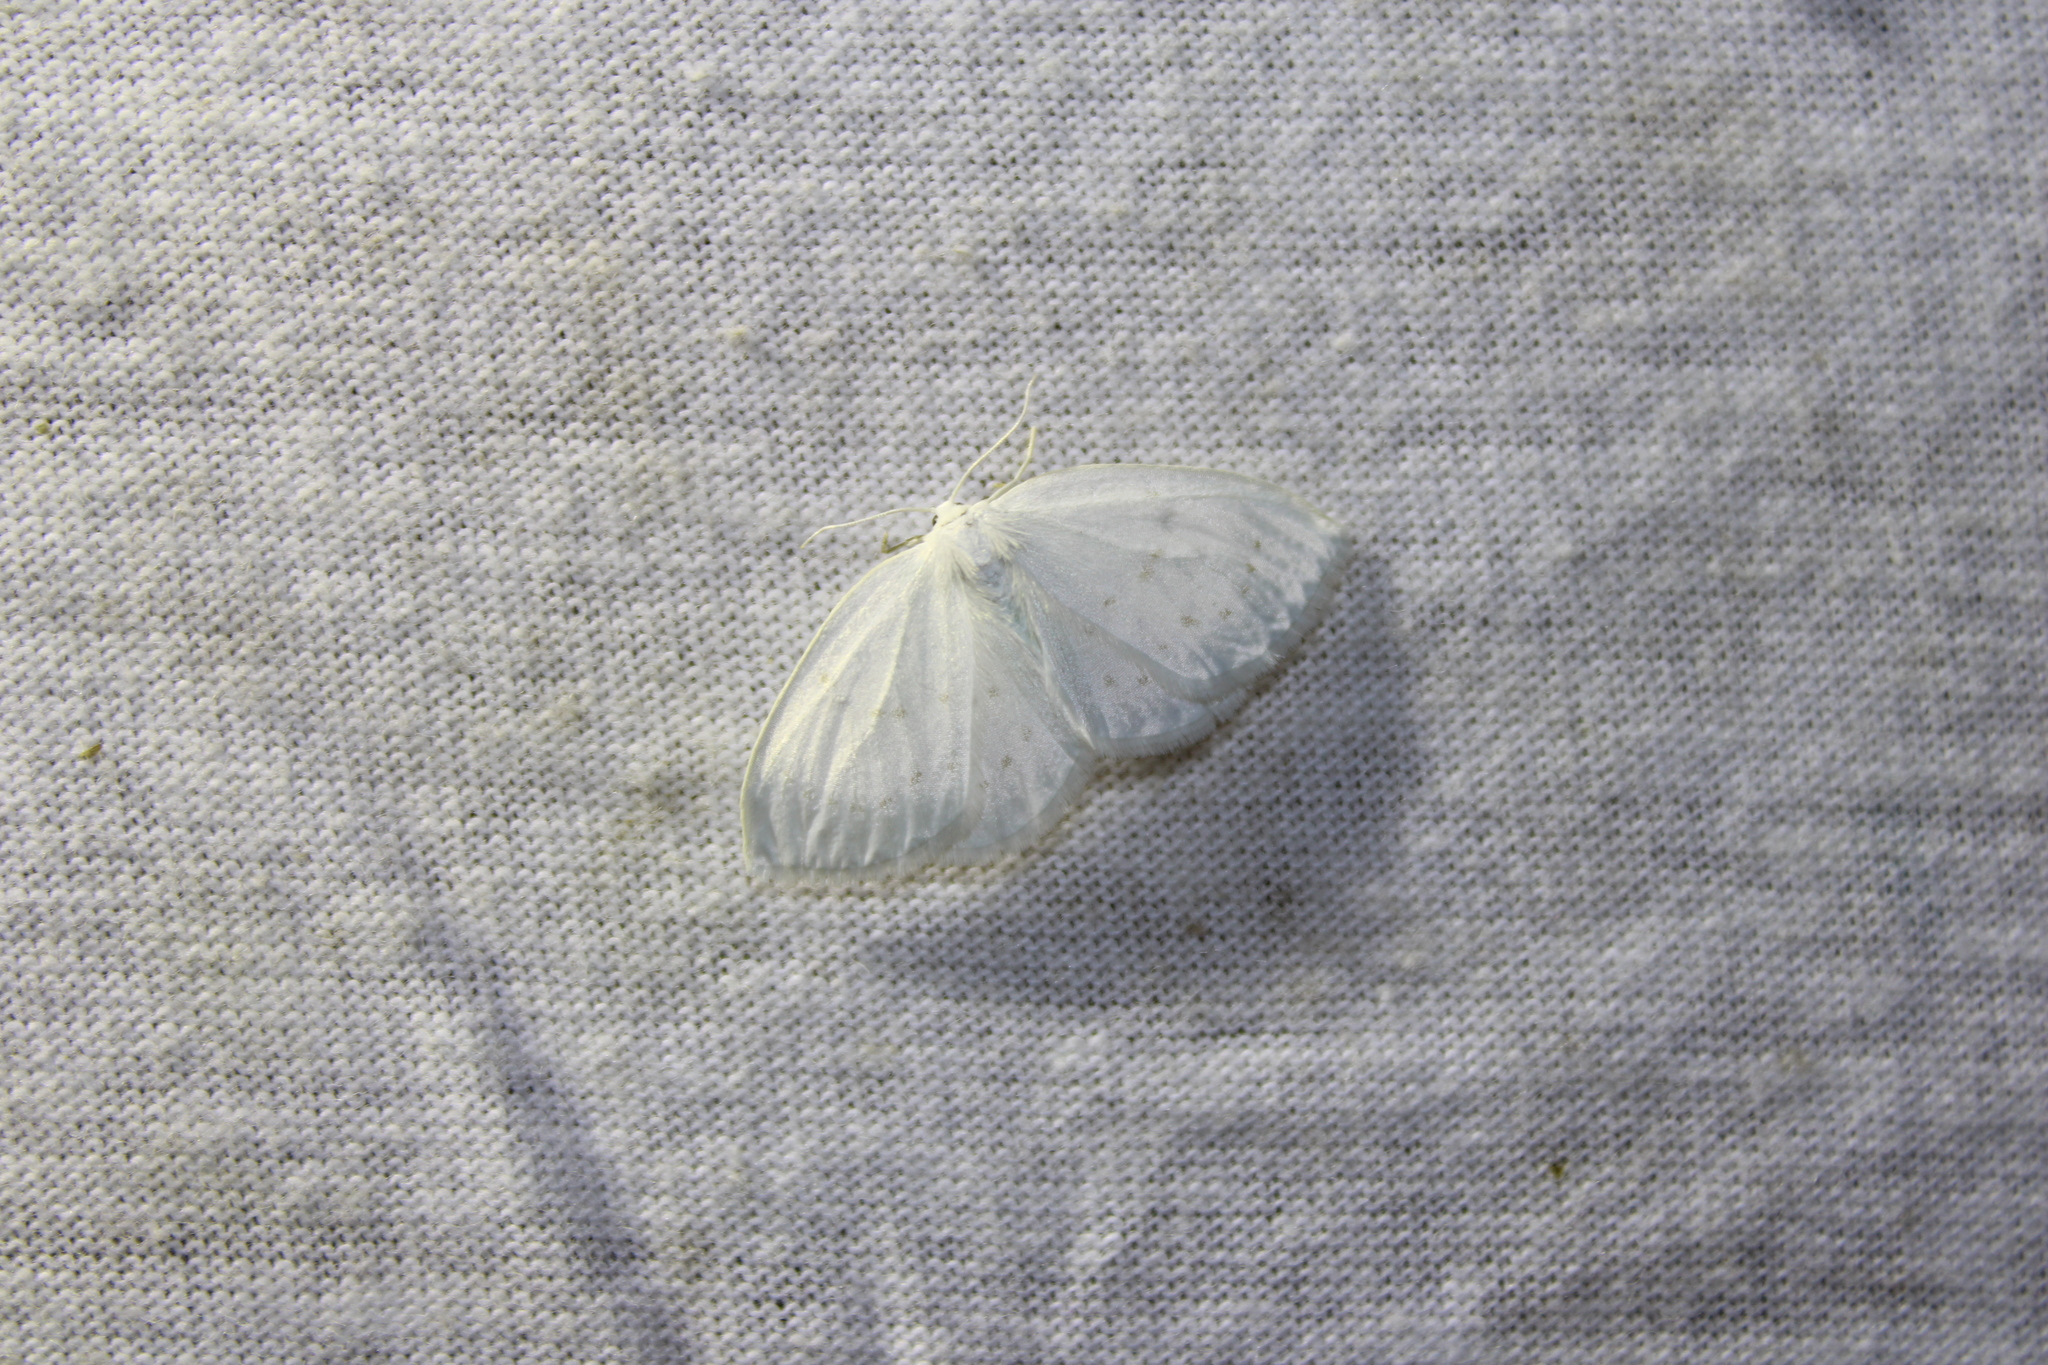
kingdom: Animalia
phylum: Arthropoda
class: Insecta
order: Lepidoptera
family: Drepanidae
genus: Eudeilinia
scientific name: Eudeilinia herminiata
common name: Northern eudeilinea moth
